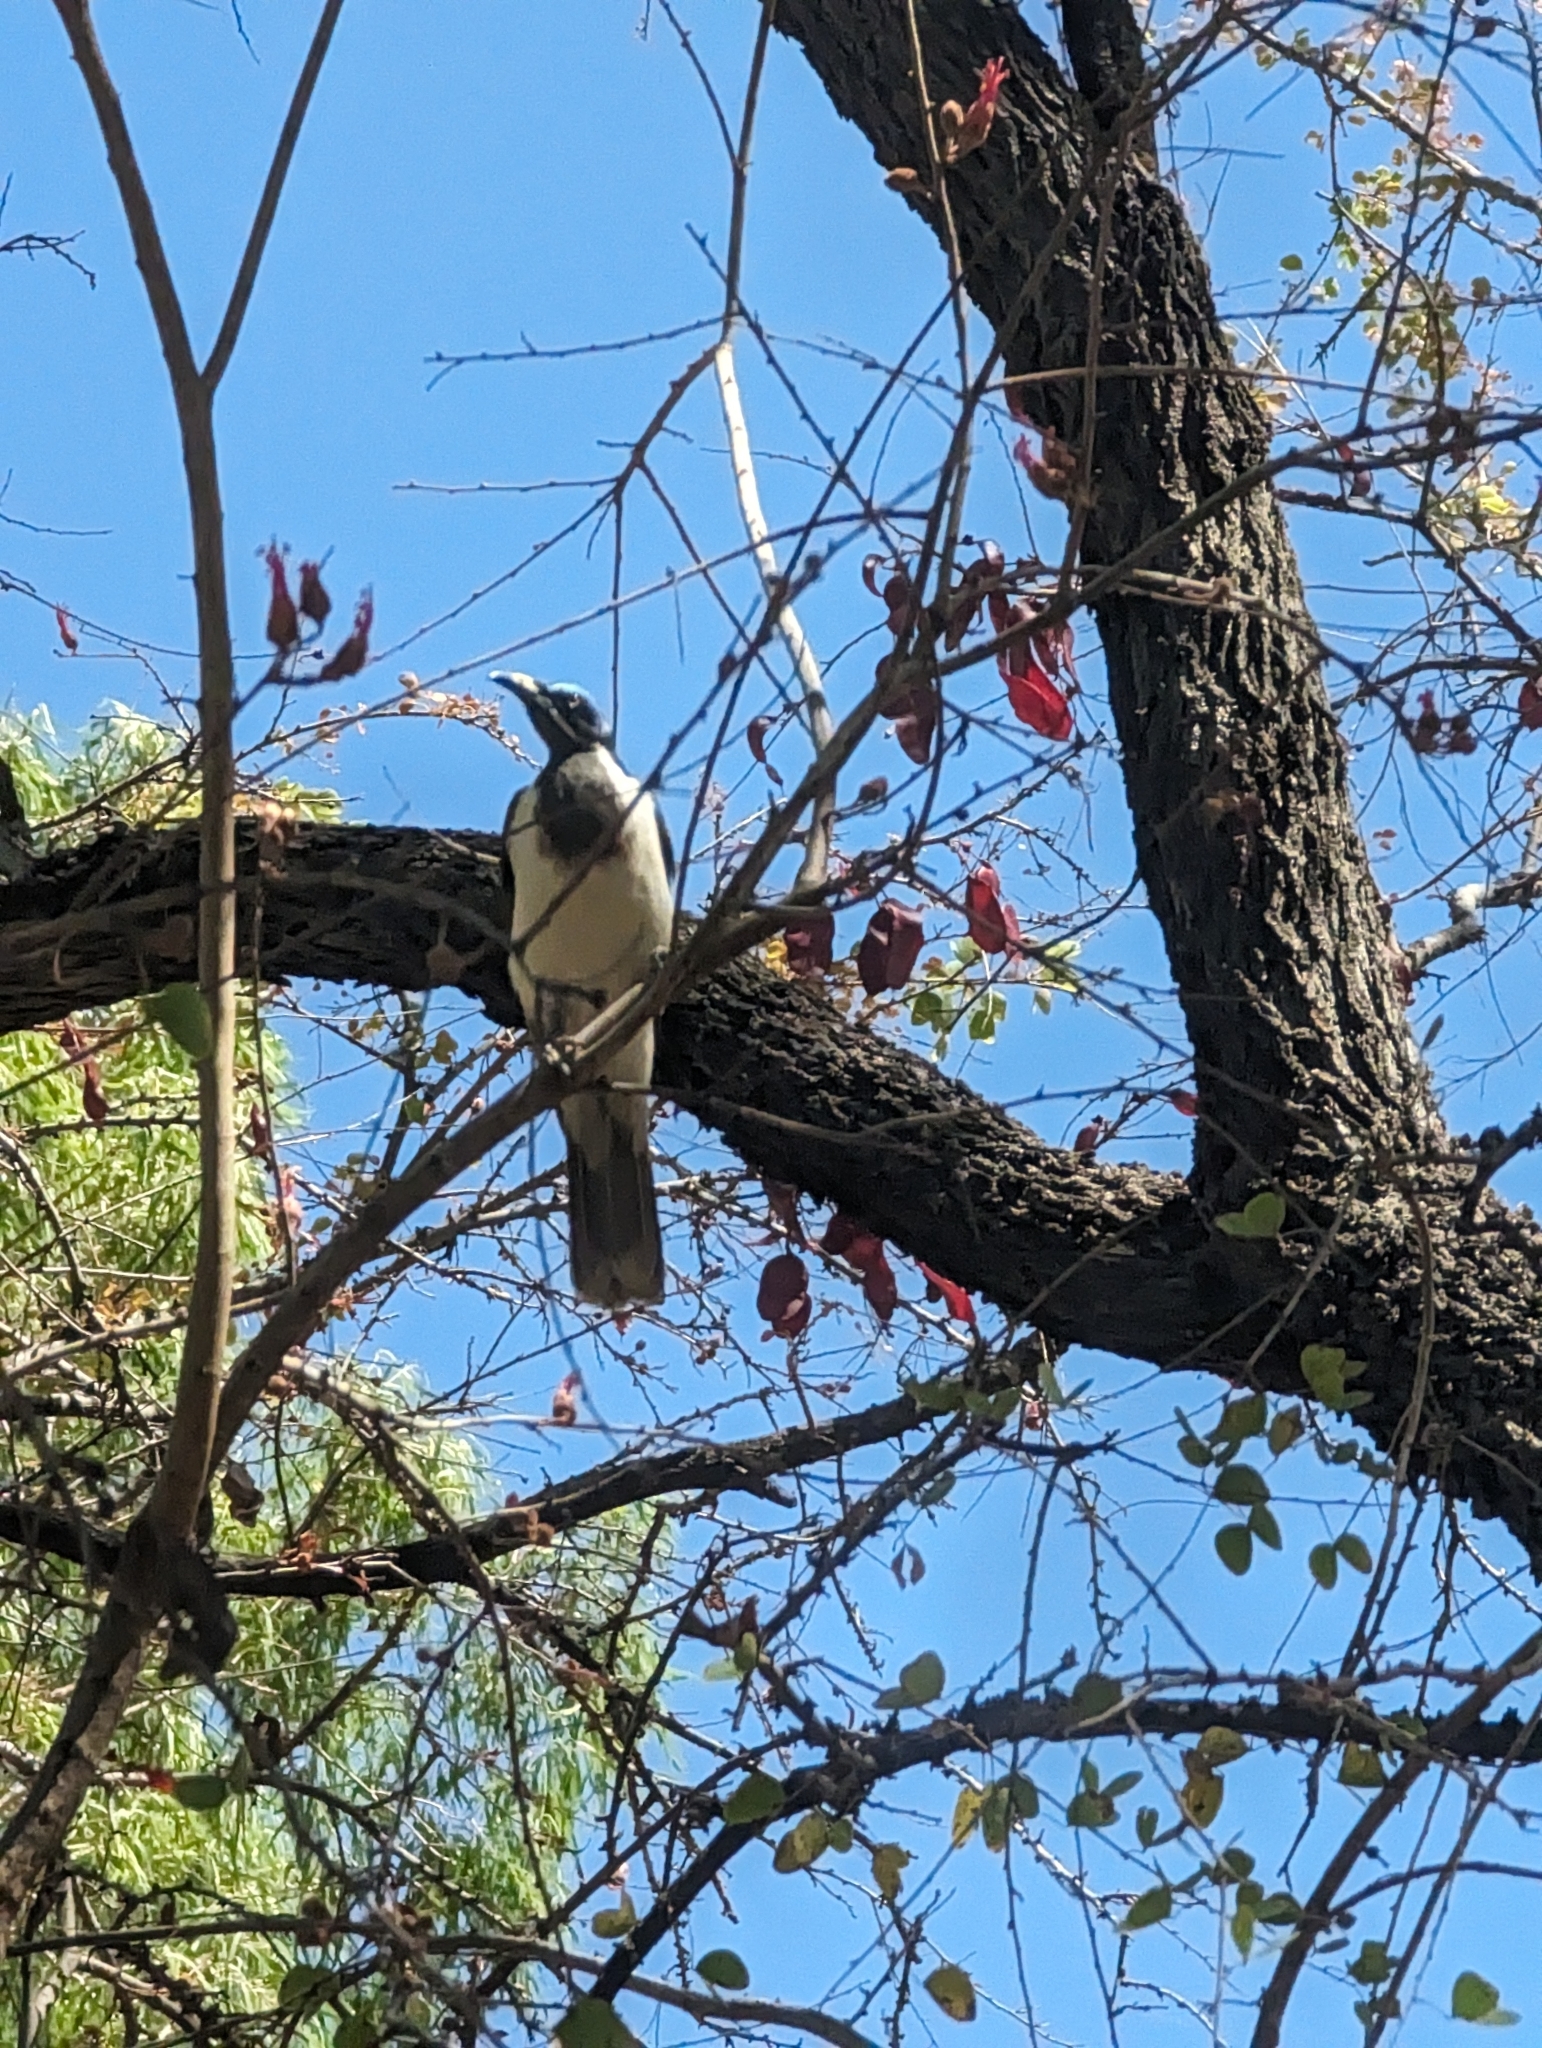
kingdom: Animalia
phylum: Chordata
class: Aves
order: Passeriformes
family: Meliphagidae
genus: Entomyzon
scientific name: Entomyzon cyanotis
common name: Blue-faced honeyeater
